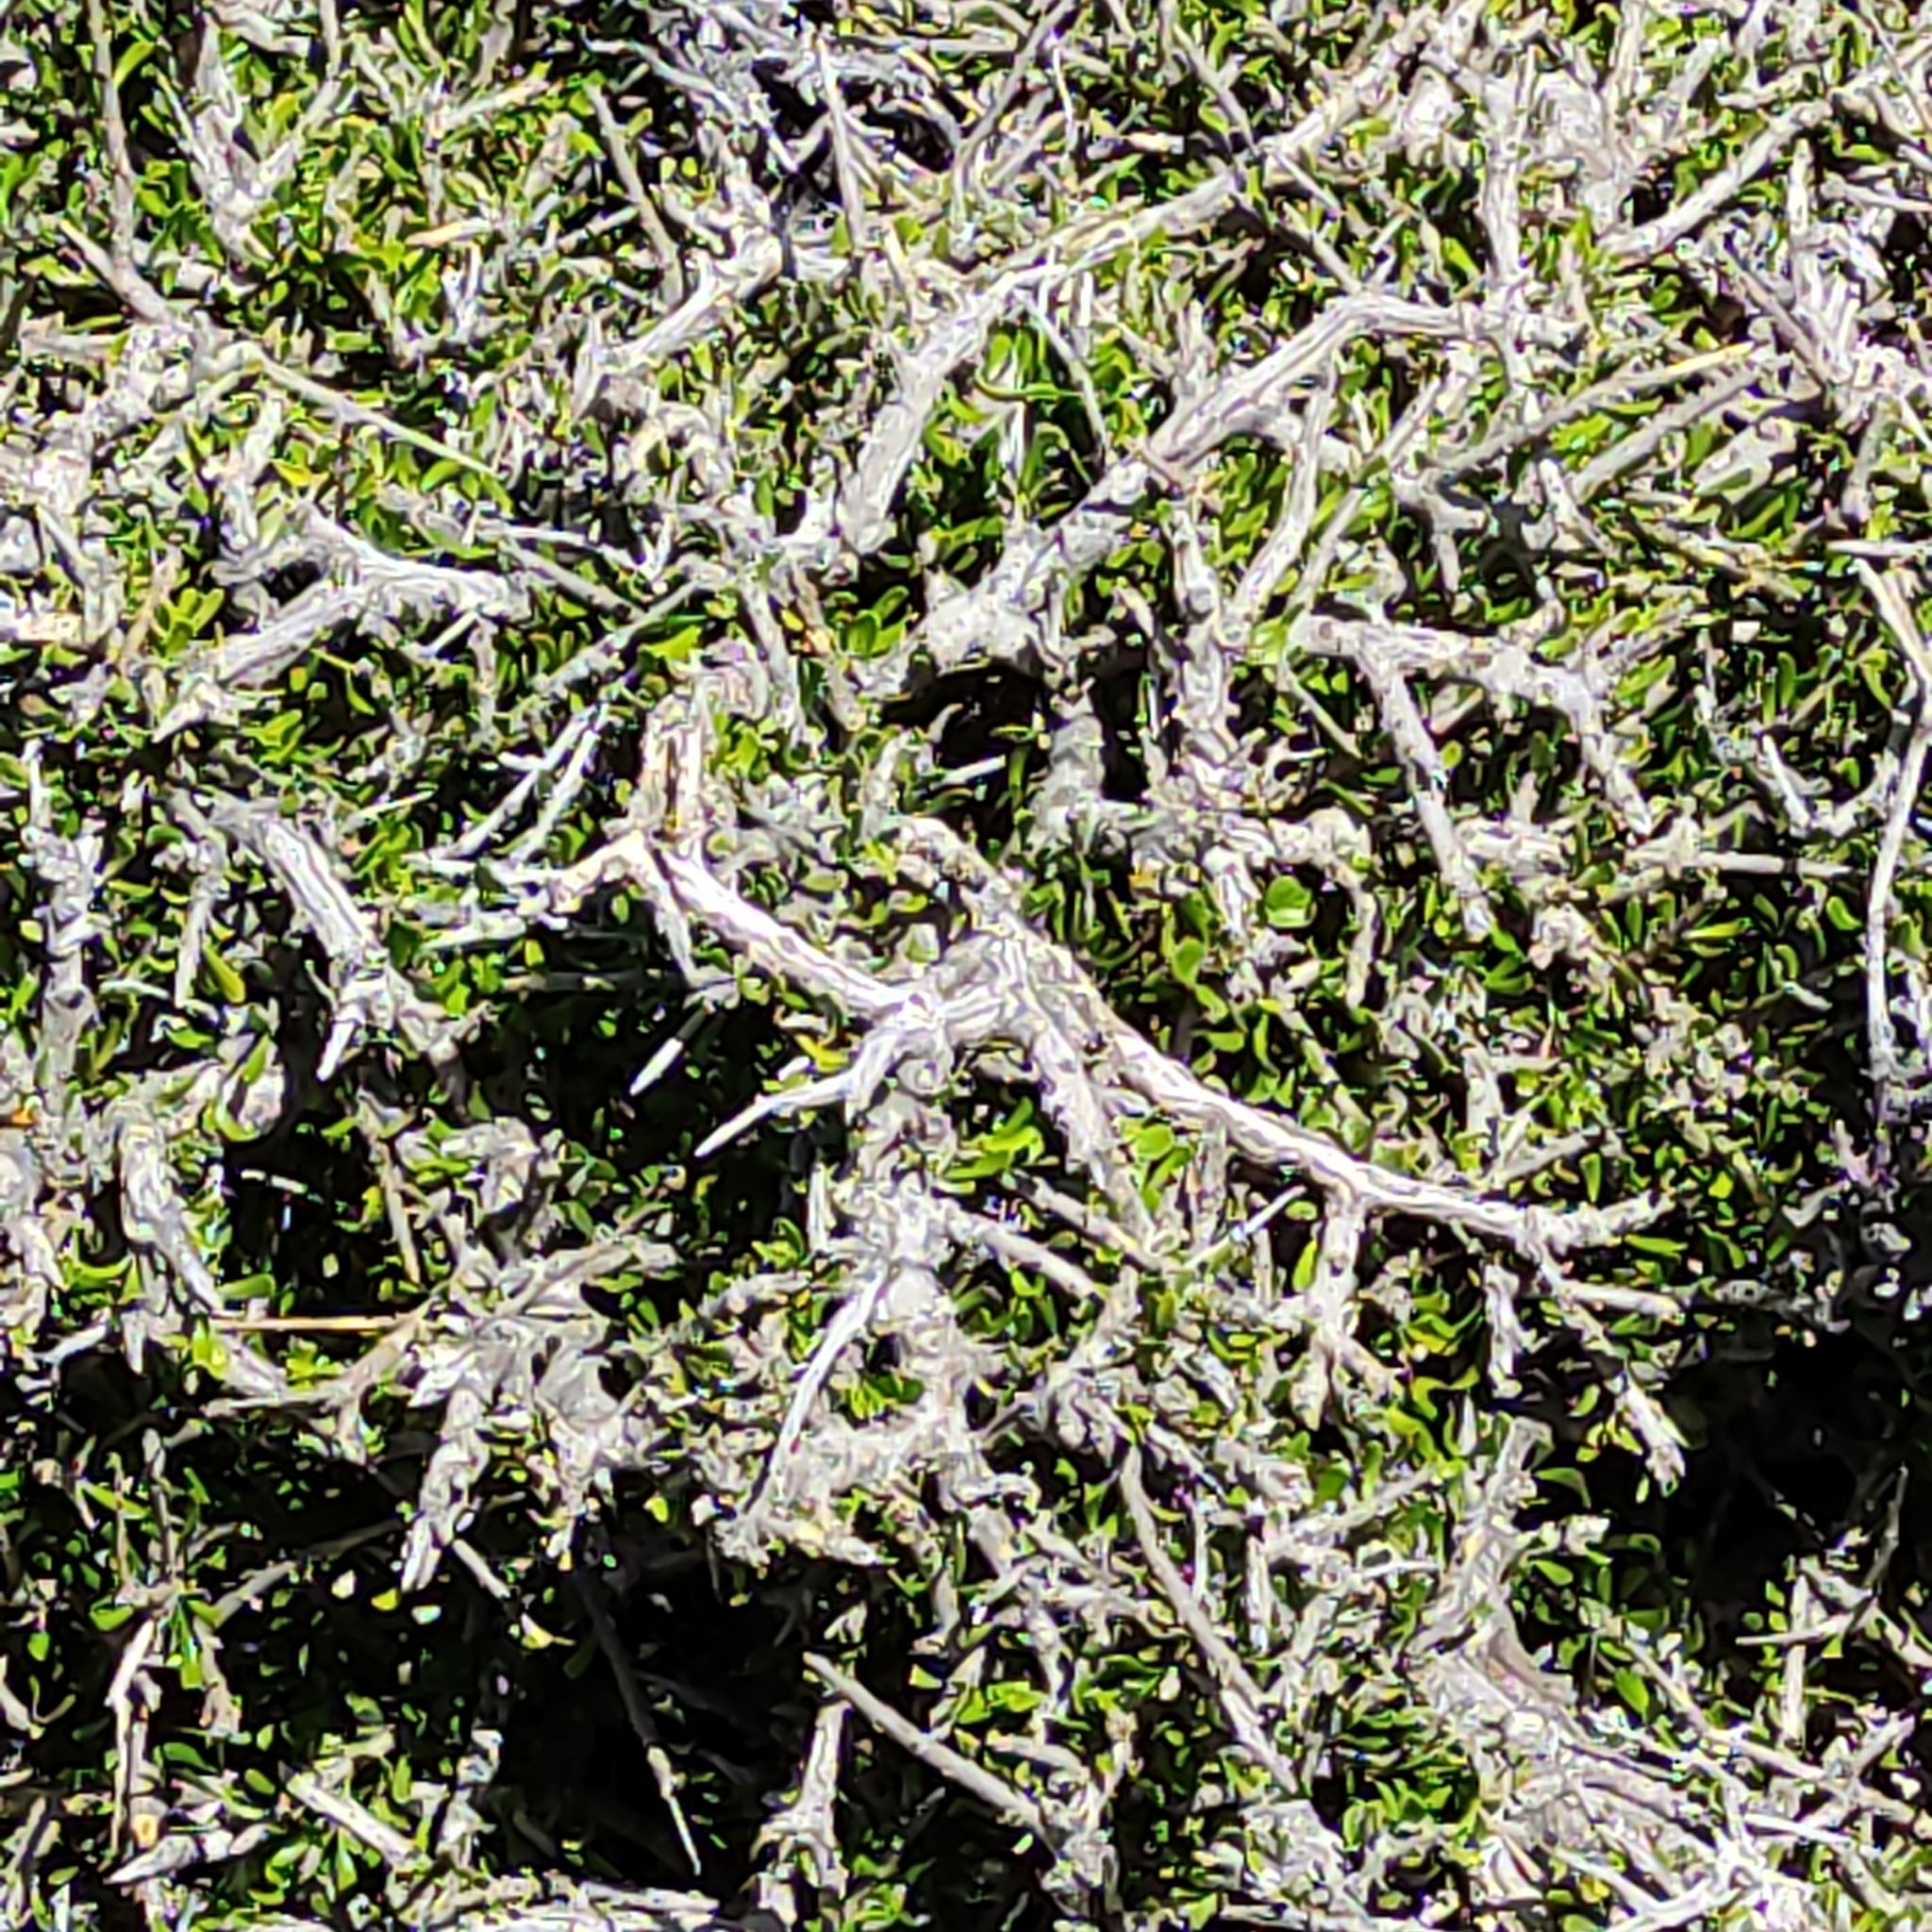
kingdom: Plantae
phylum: Tracheophyta
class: Magnoliopsida
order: Malpighiales
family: Violaceae
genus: Melicytus
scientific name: Melicytus alpinus
